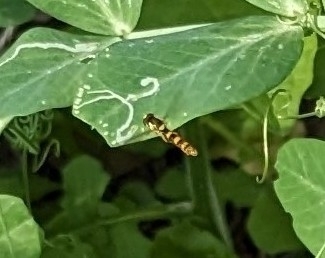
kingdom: Animalia
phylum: Arthropoda
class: Insecta
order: Diptera
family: Syrphidae
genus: Sphaerophoria
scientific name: Sphaerophoria scripta
